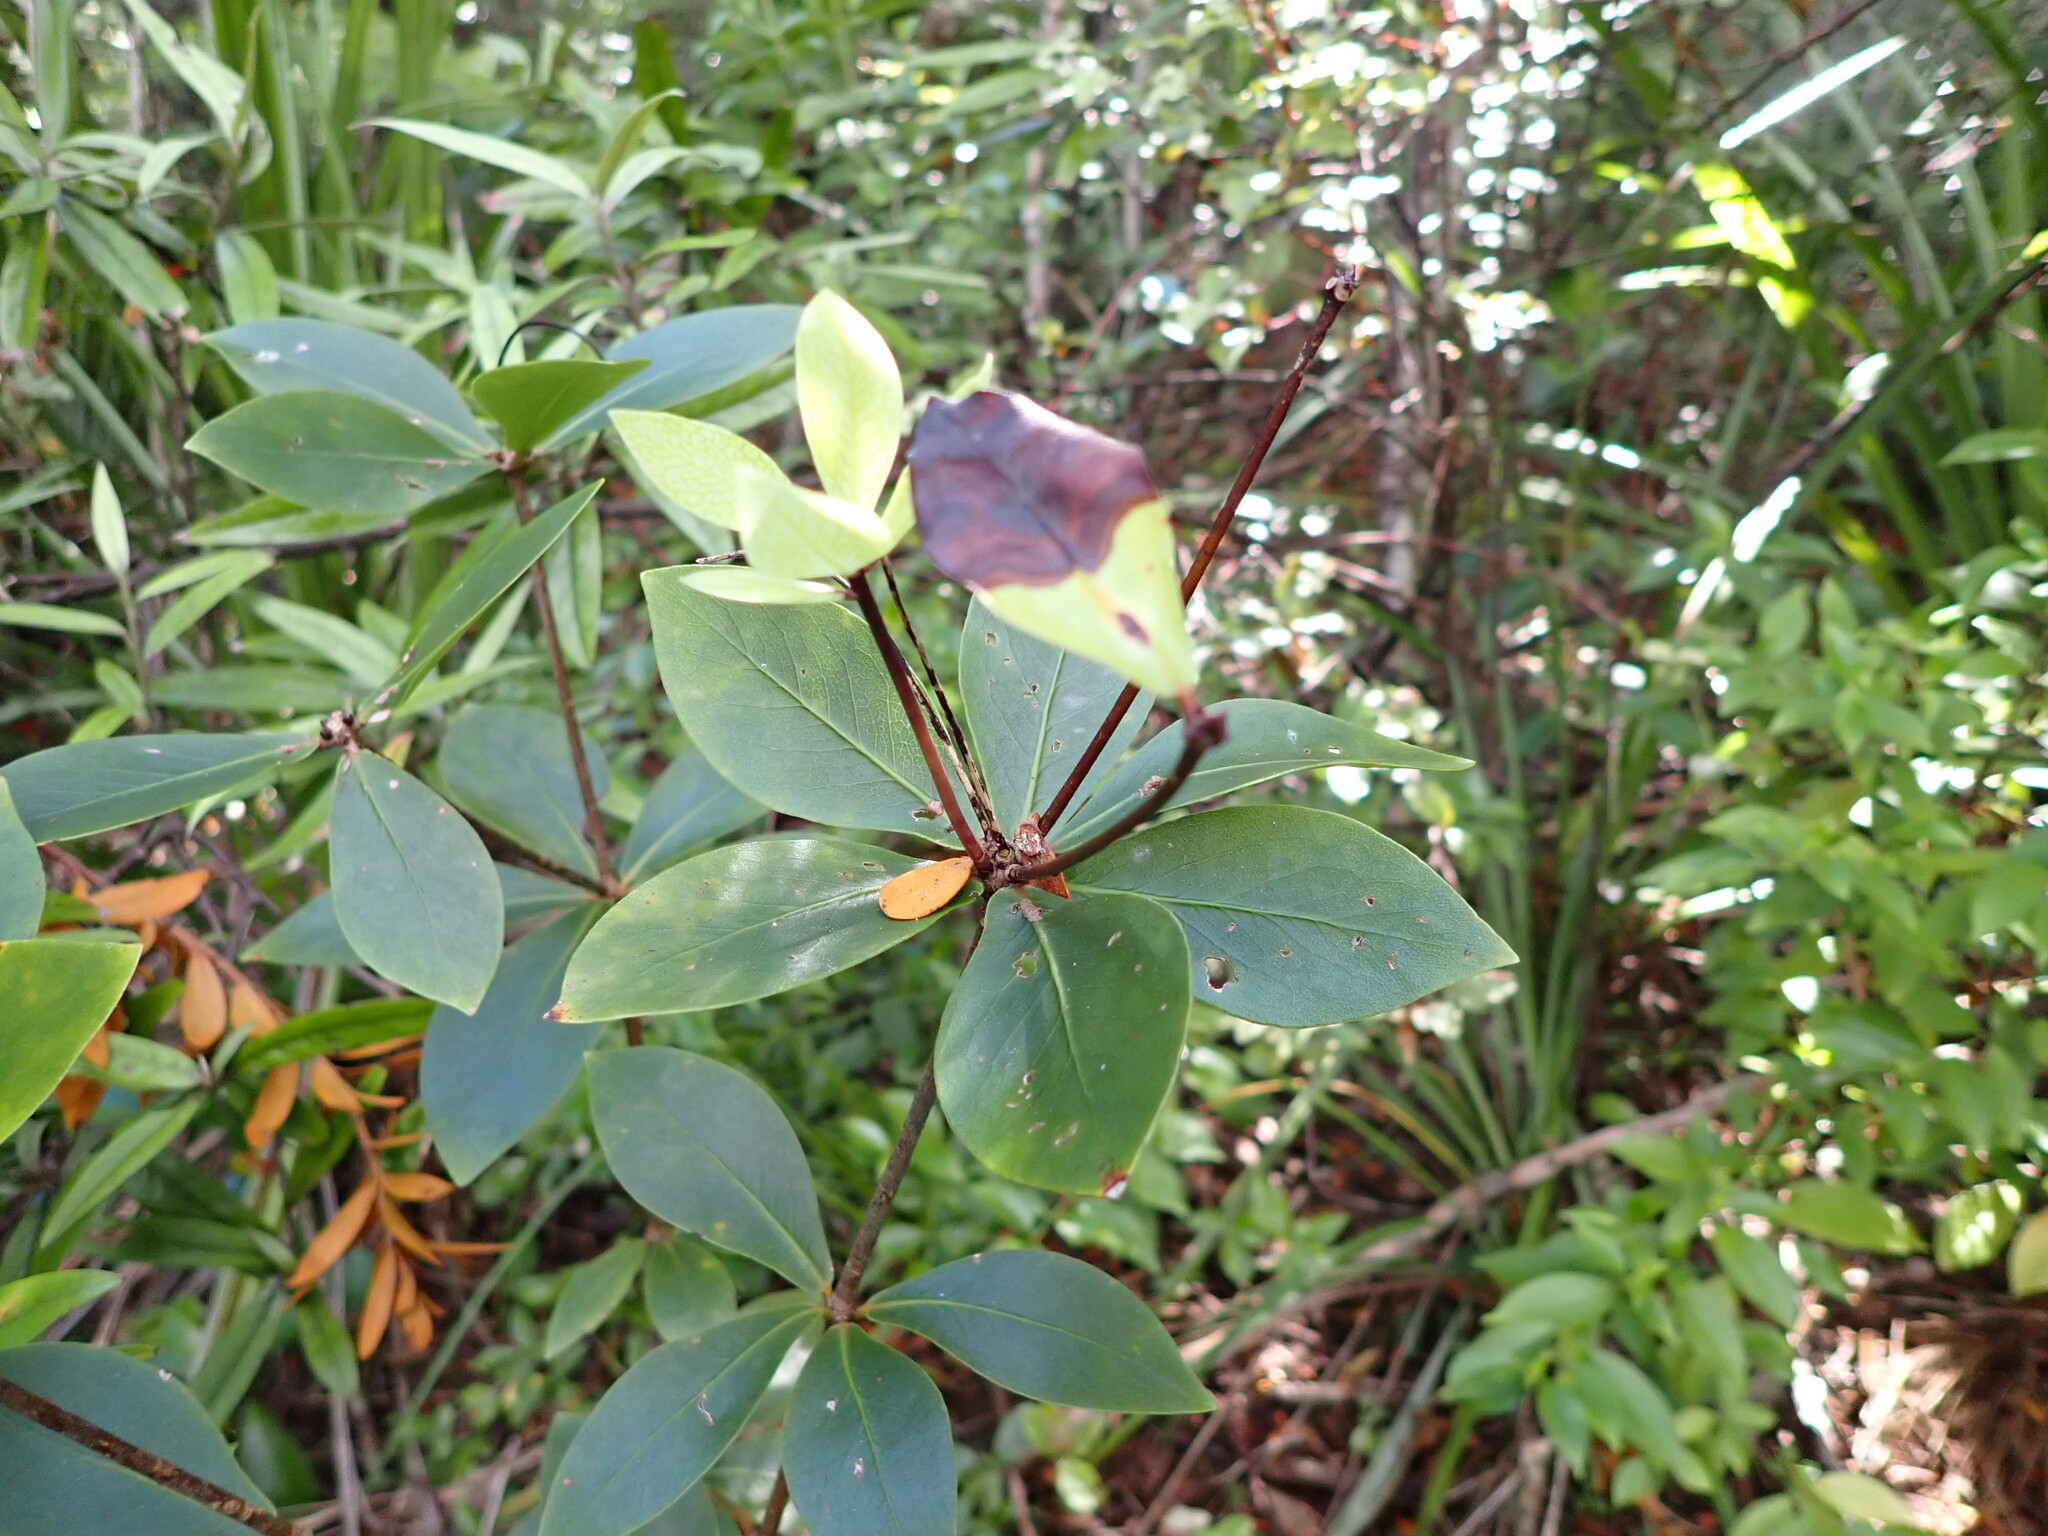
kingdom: Plantae
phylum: Tracheophyta
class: Magnoliopsida
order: Apiales
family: Pittosporaceae
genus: Pittosporum
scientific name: Pittosporum cornifolium
